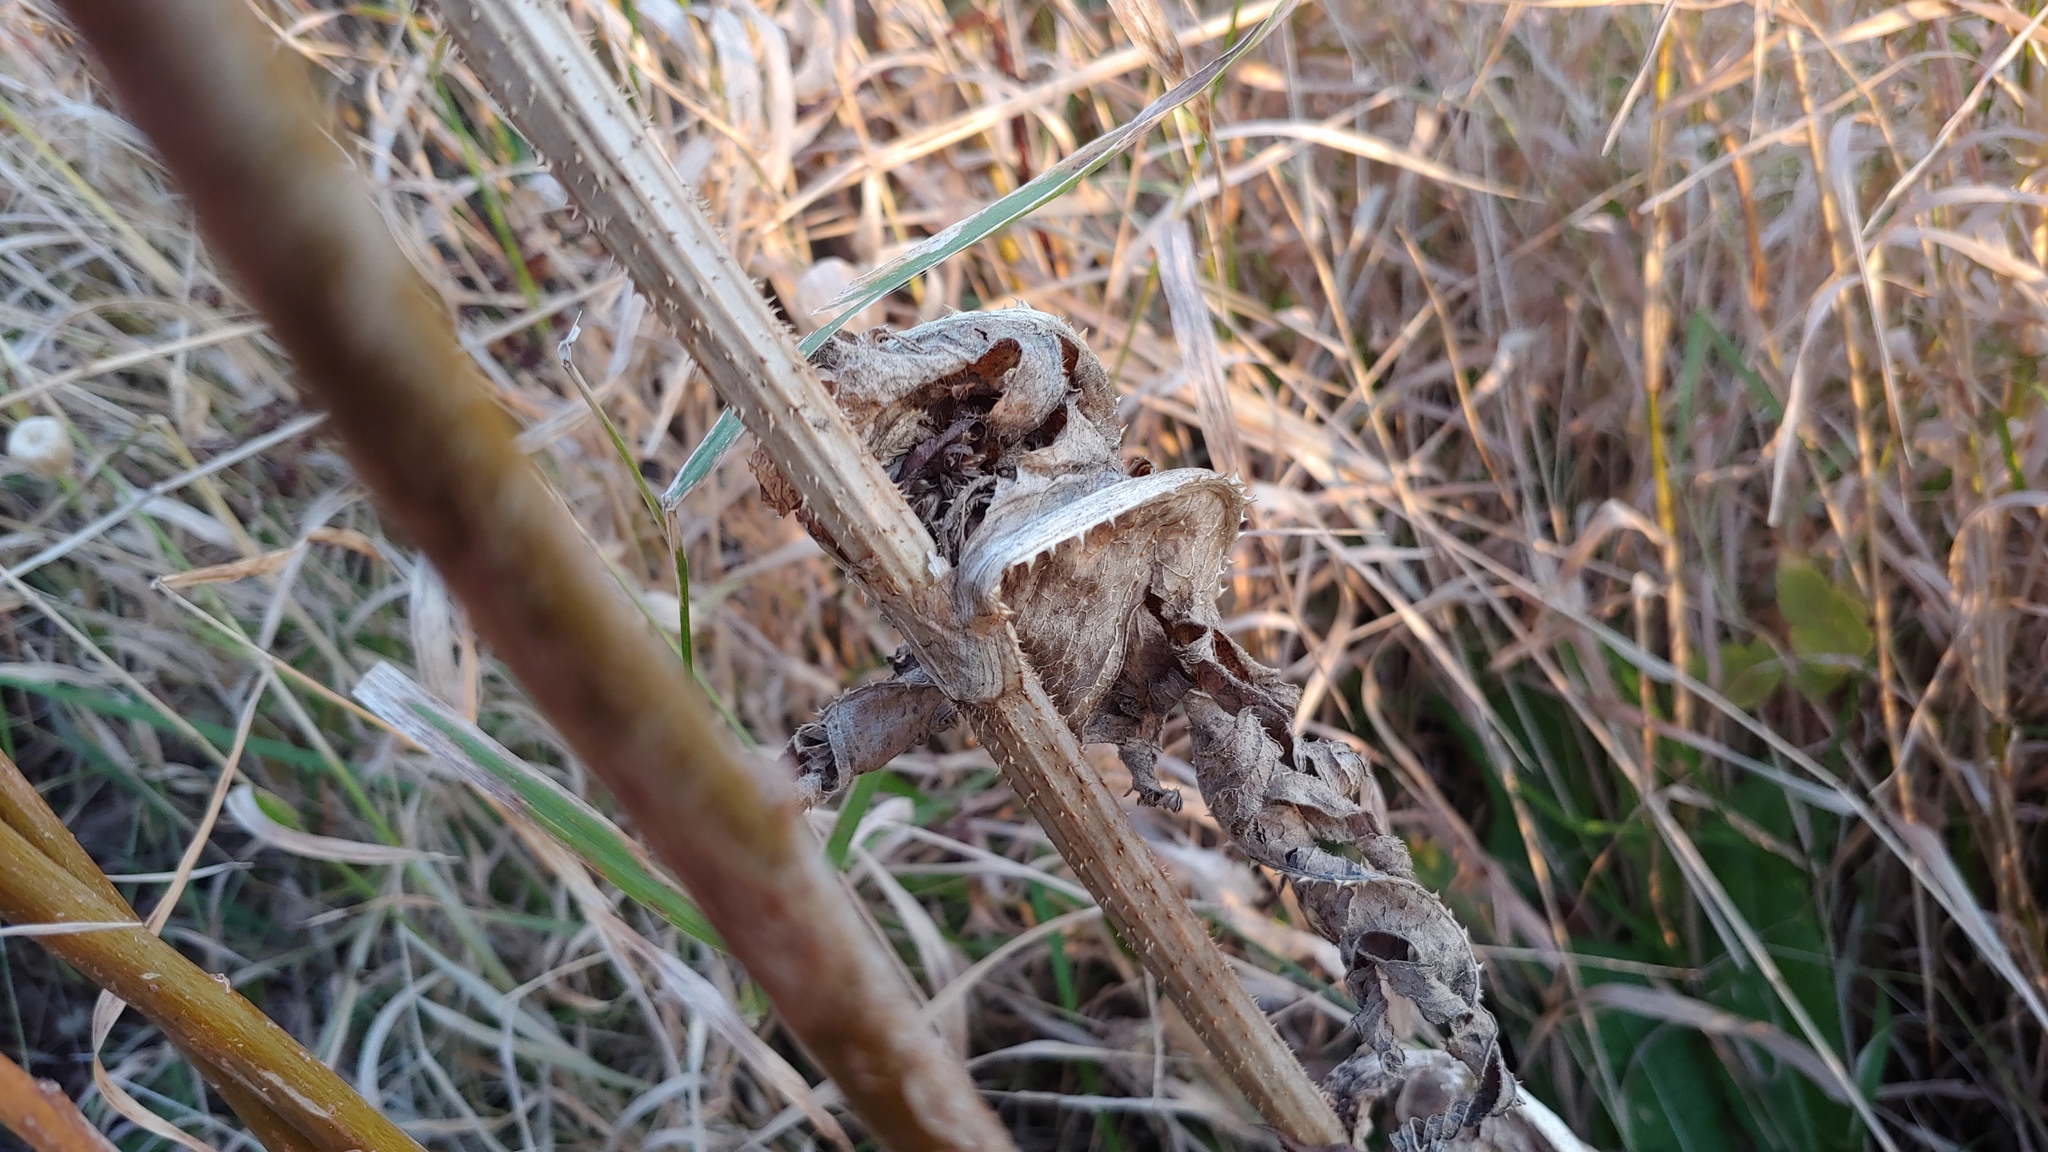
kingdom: Plantae
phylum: Tracheophyta
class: Magnoliopsida
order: Dipsacales
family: Caprifoliaceae
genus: Dipsacus
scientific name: Dipsacus laciniatus
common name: Cut-leaved teasel
